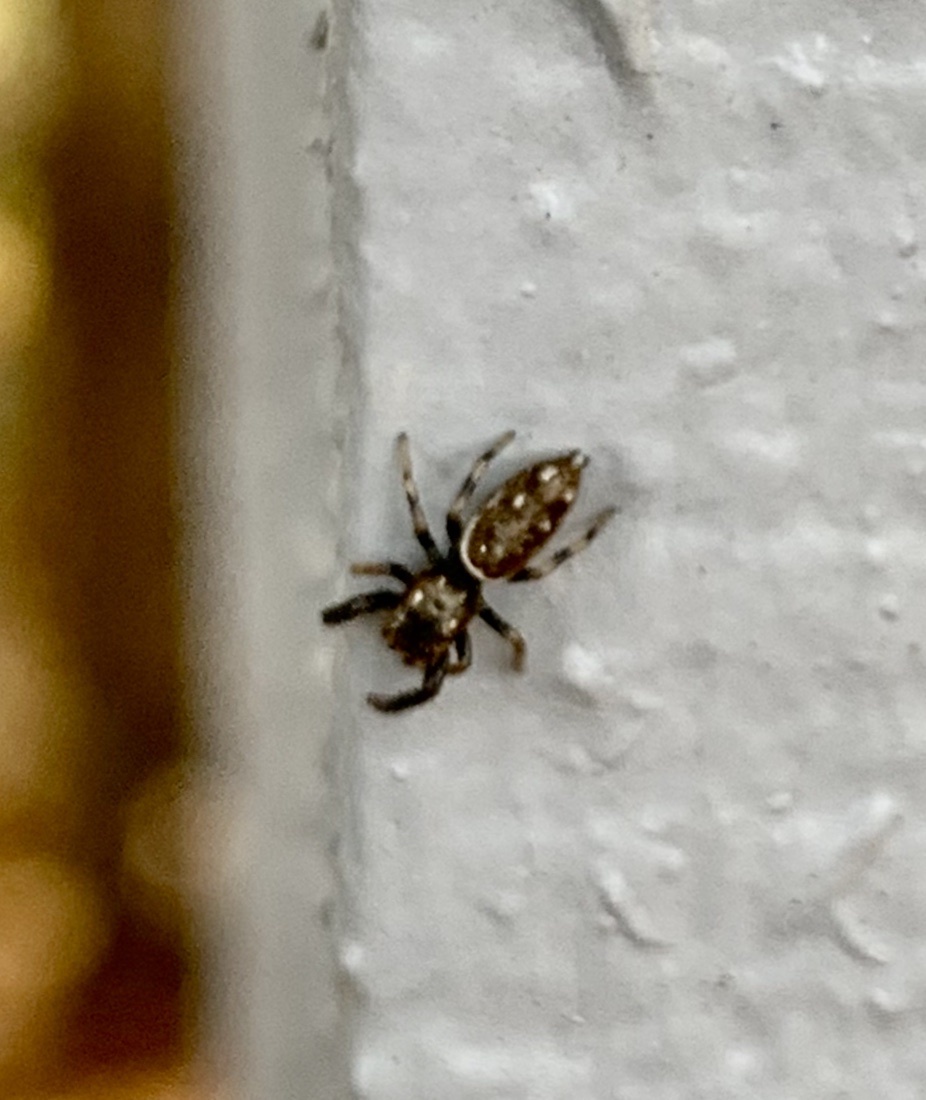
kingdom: Animalia
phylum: Arthropoda
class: Arachnida
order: Araneae
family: Salticidae
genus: Marpissa
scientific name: Marpissa formosa
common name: Short-bellied slender jumping spider
